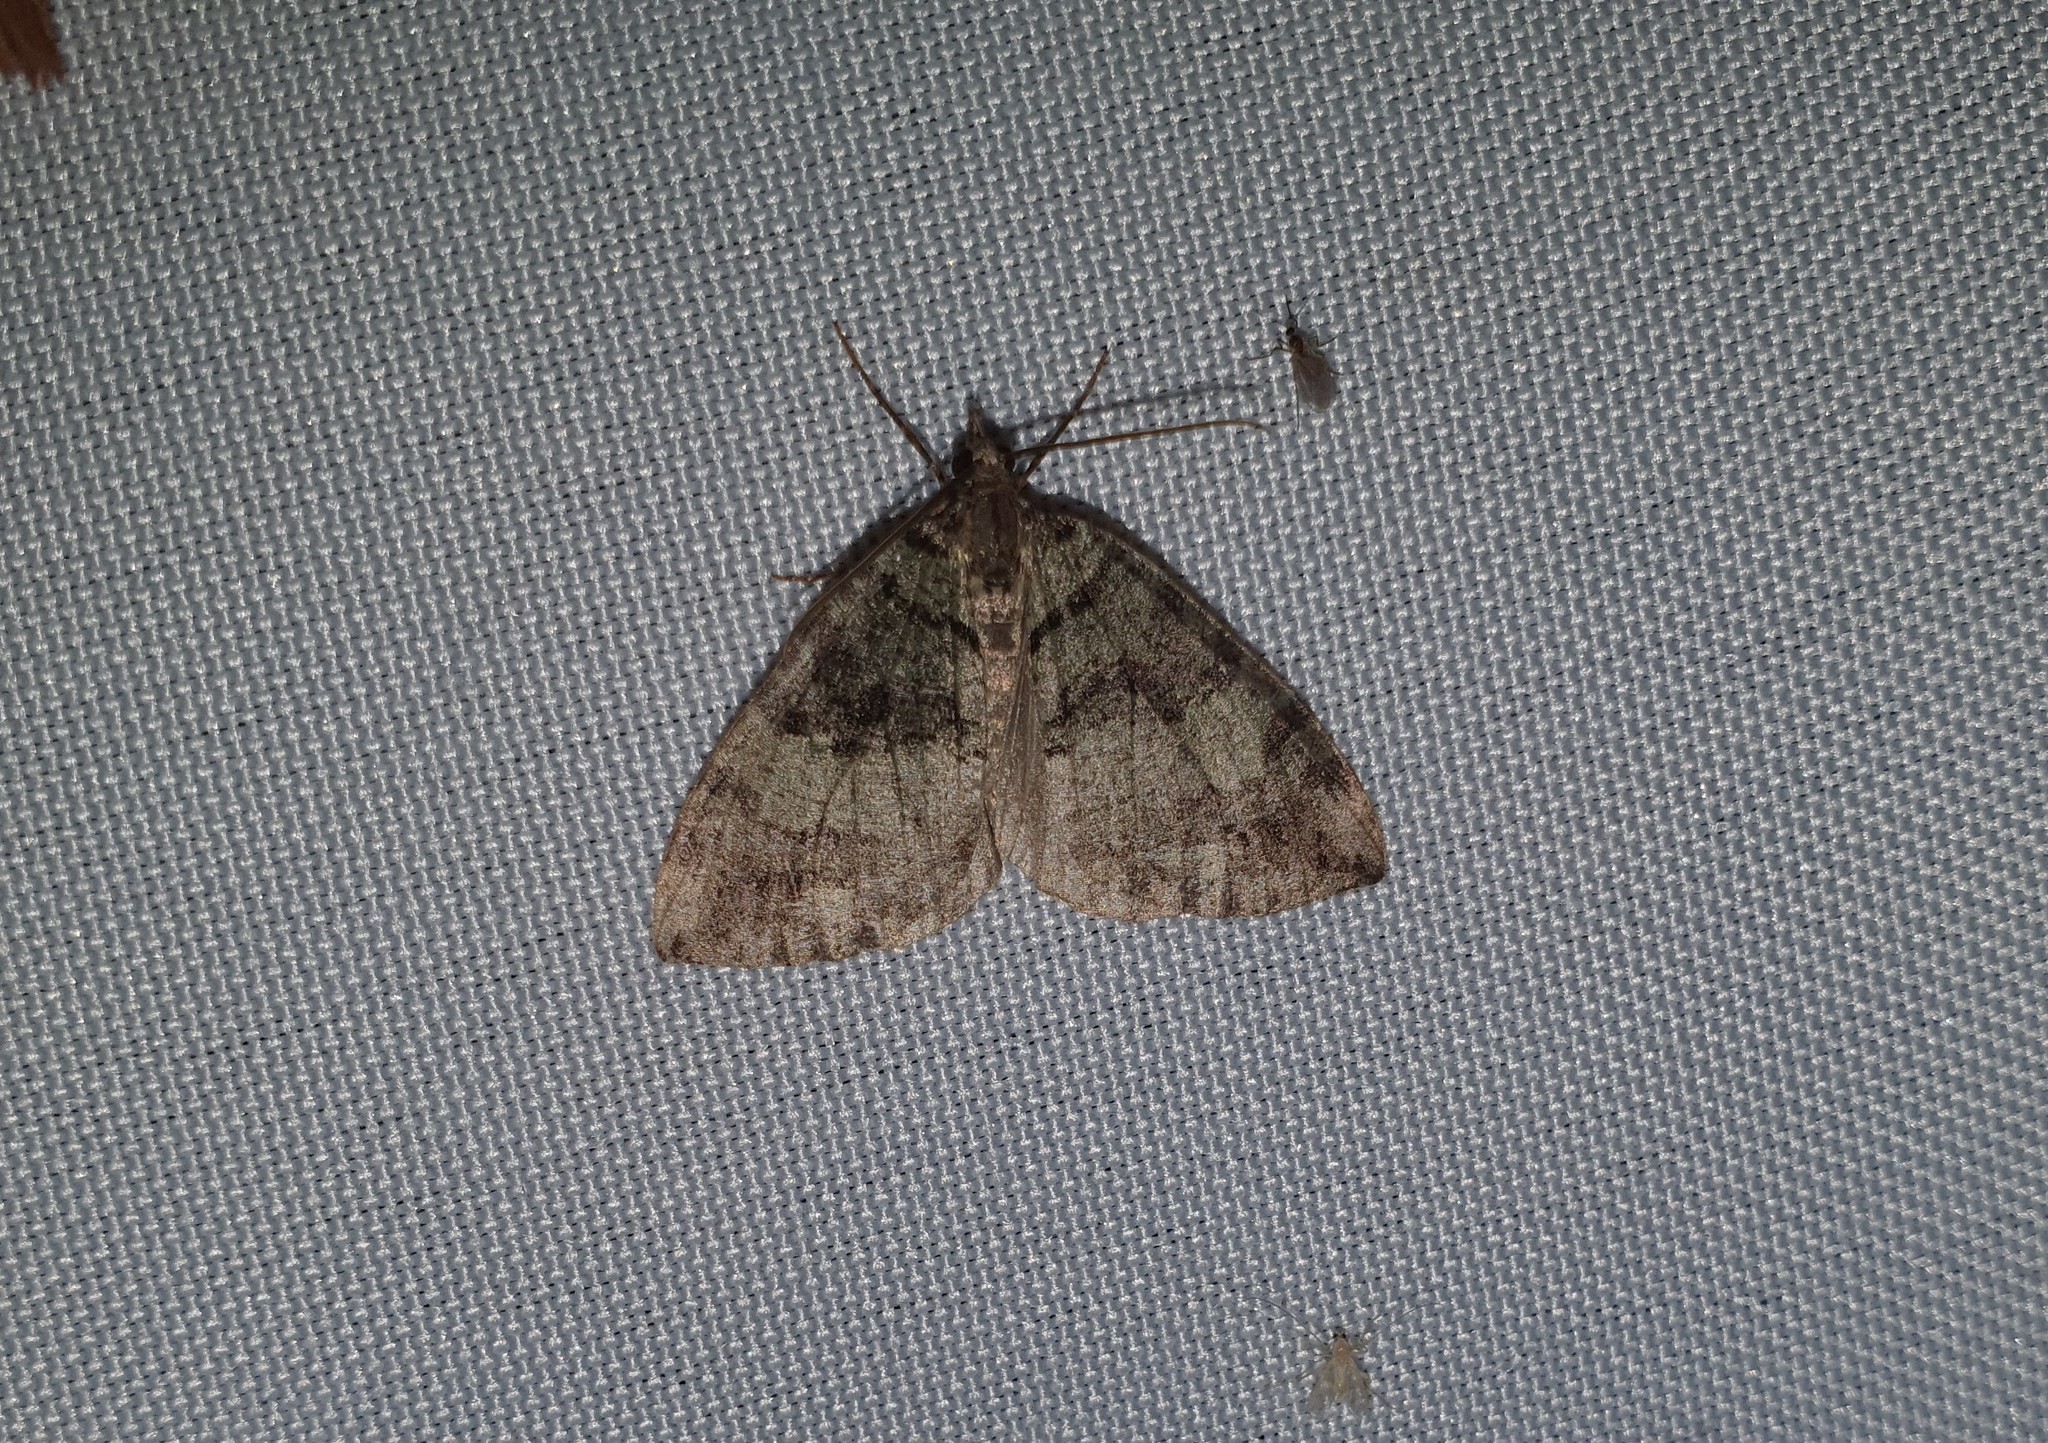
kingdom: Animalia
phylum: Arthropoda
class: Insecta
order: Lepidoptera
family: Geometridae
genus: Hydriomena
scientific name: Hydriomena furcata
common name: July highflyer
